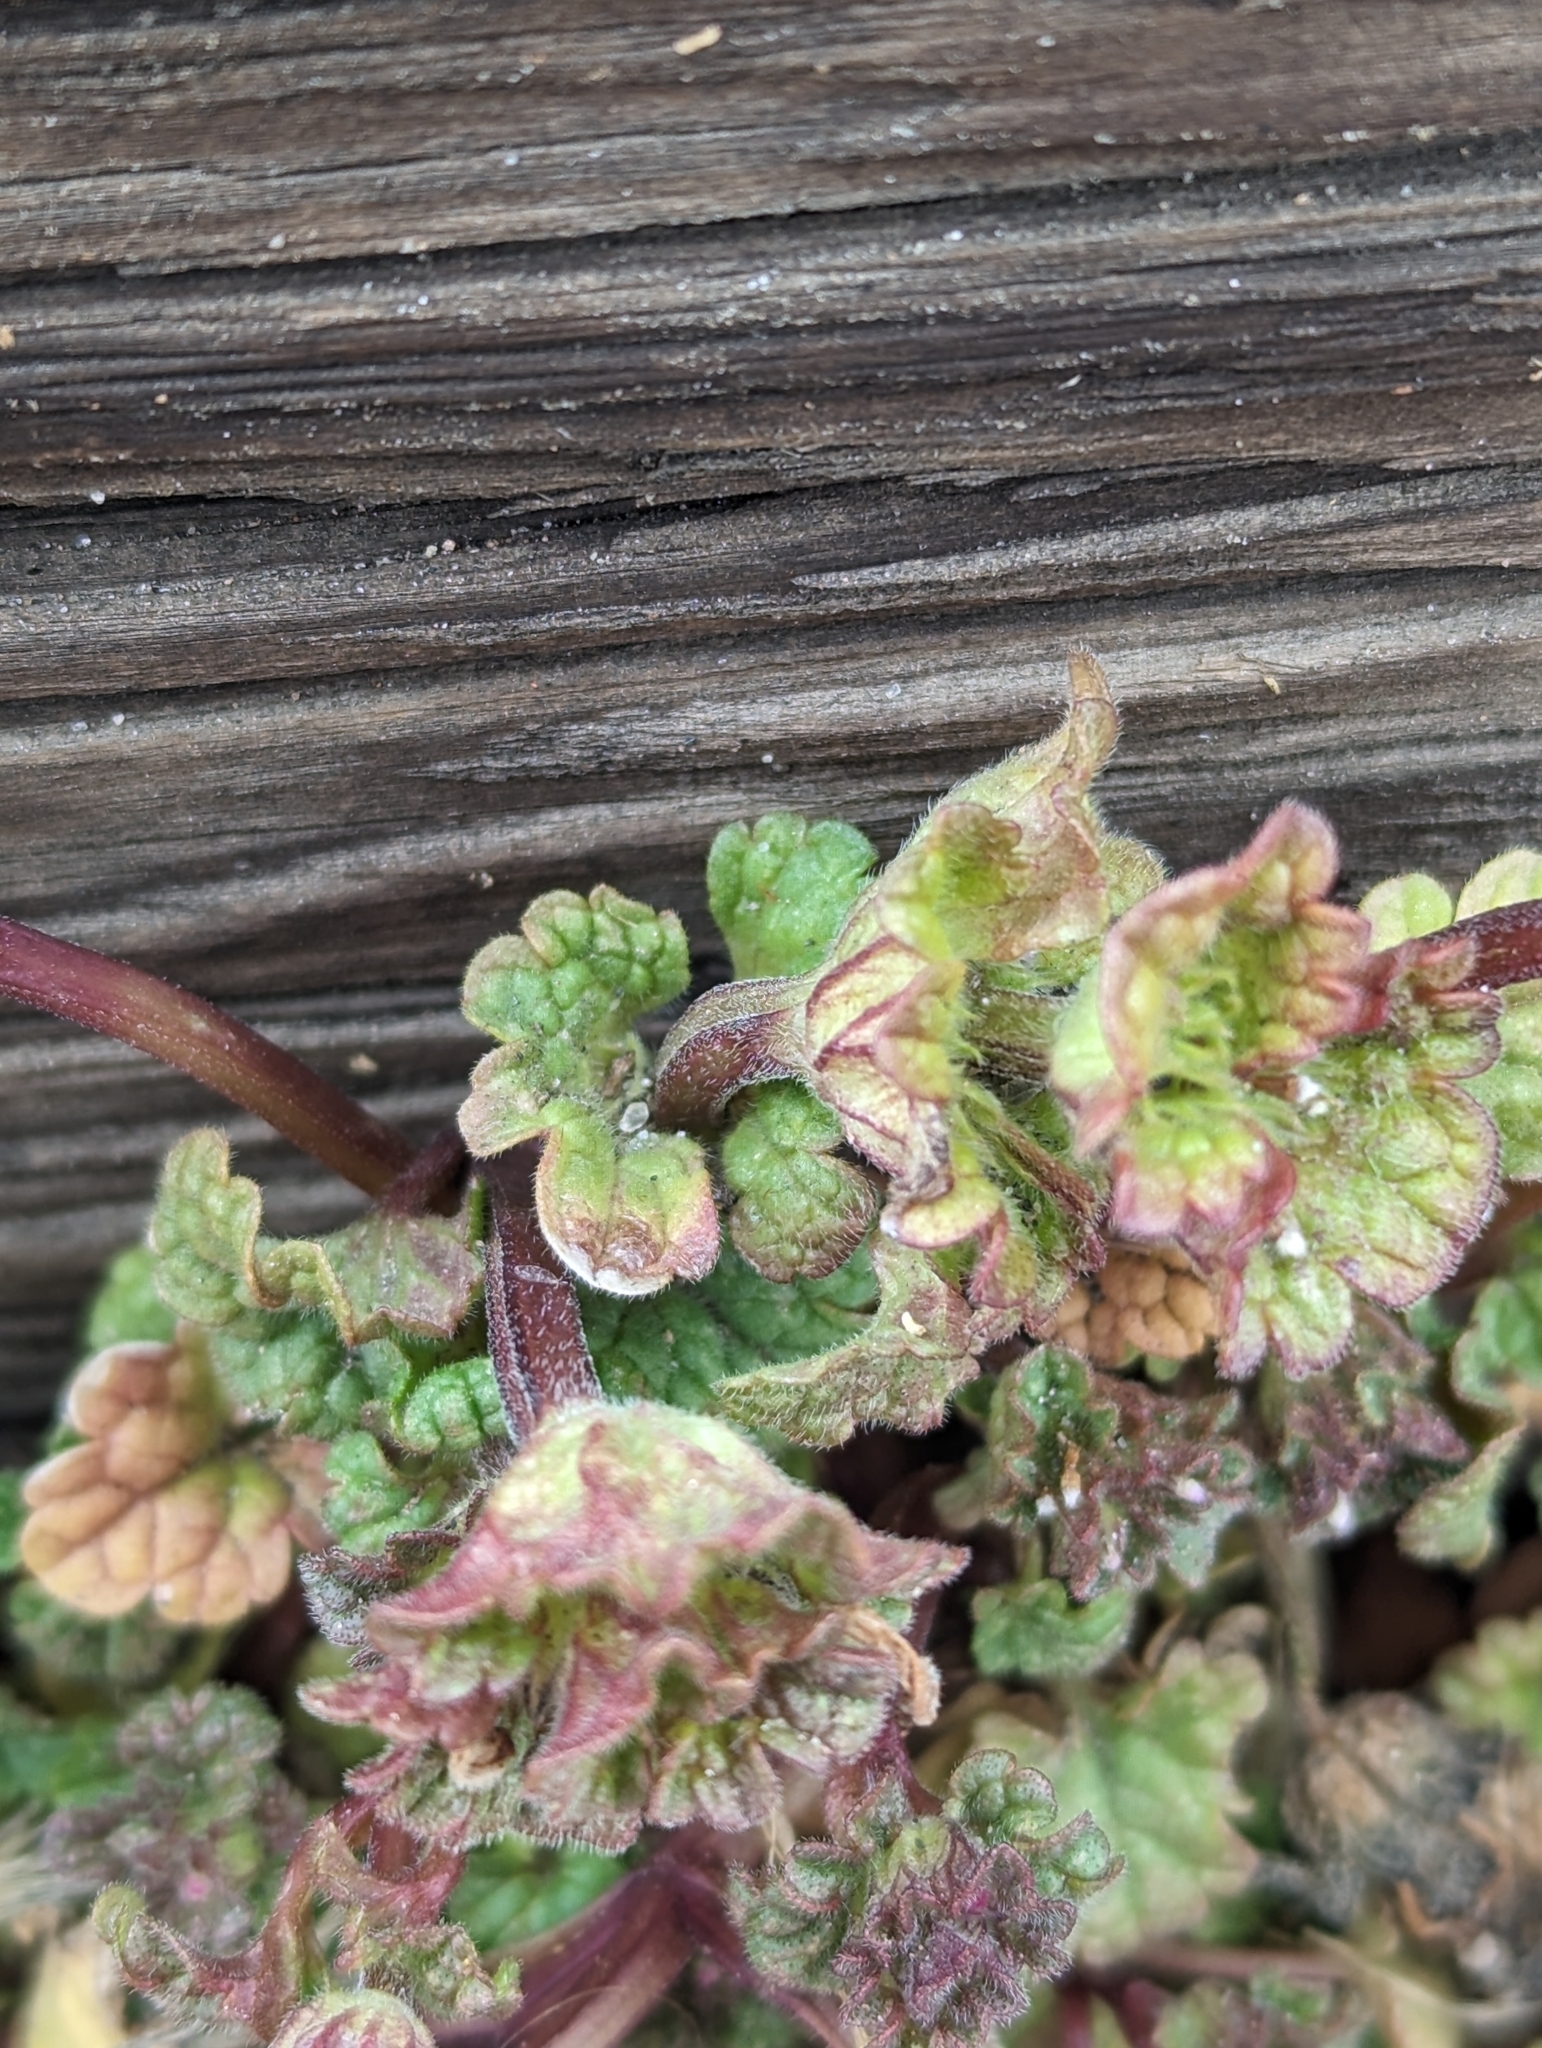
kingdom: Plantae
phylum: Tracheophyta
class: Magnoliopsida
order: Lamiales
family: Lamiaceae
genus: Lamium
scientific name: Lamium amplexicaule
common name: Henbit dead-nettle
